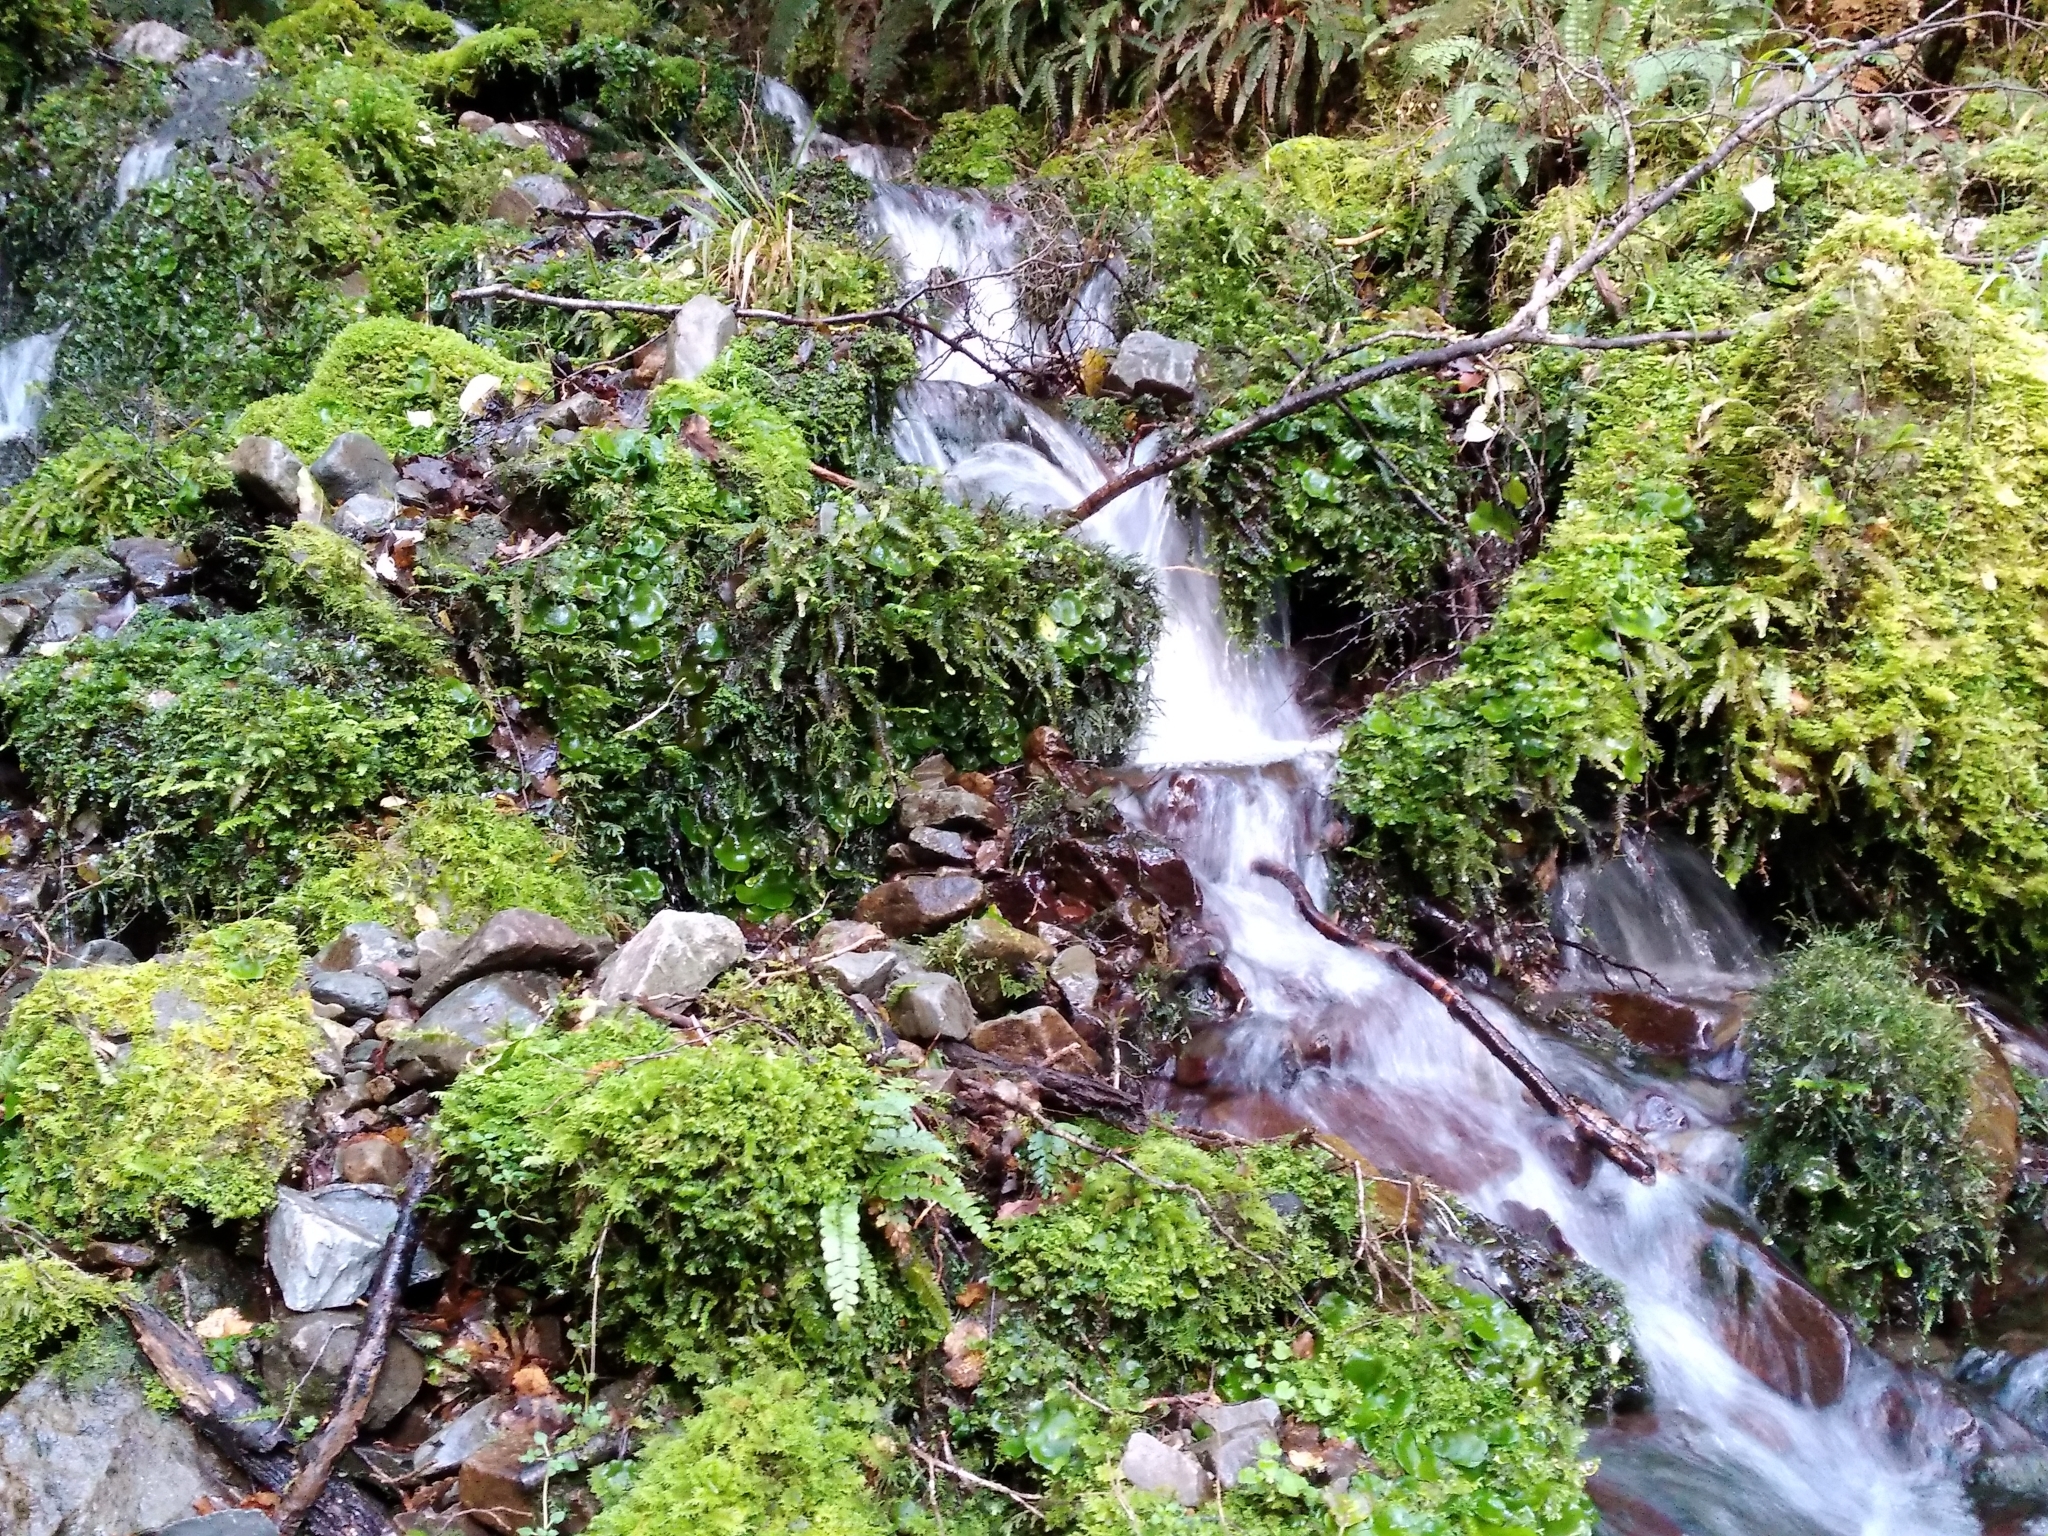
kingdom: Plantae
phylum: Marchantiophyta
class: Marchantiopsida
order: Marchantiales
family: Monocleaceae
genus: Monoclea
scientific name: Monoclea forsteri
